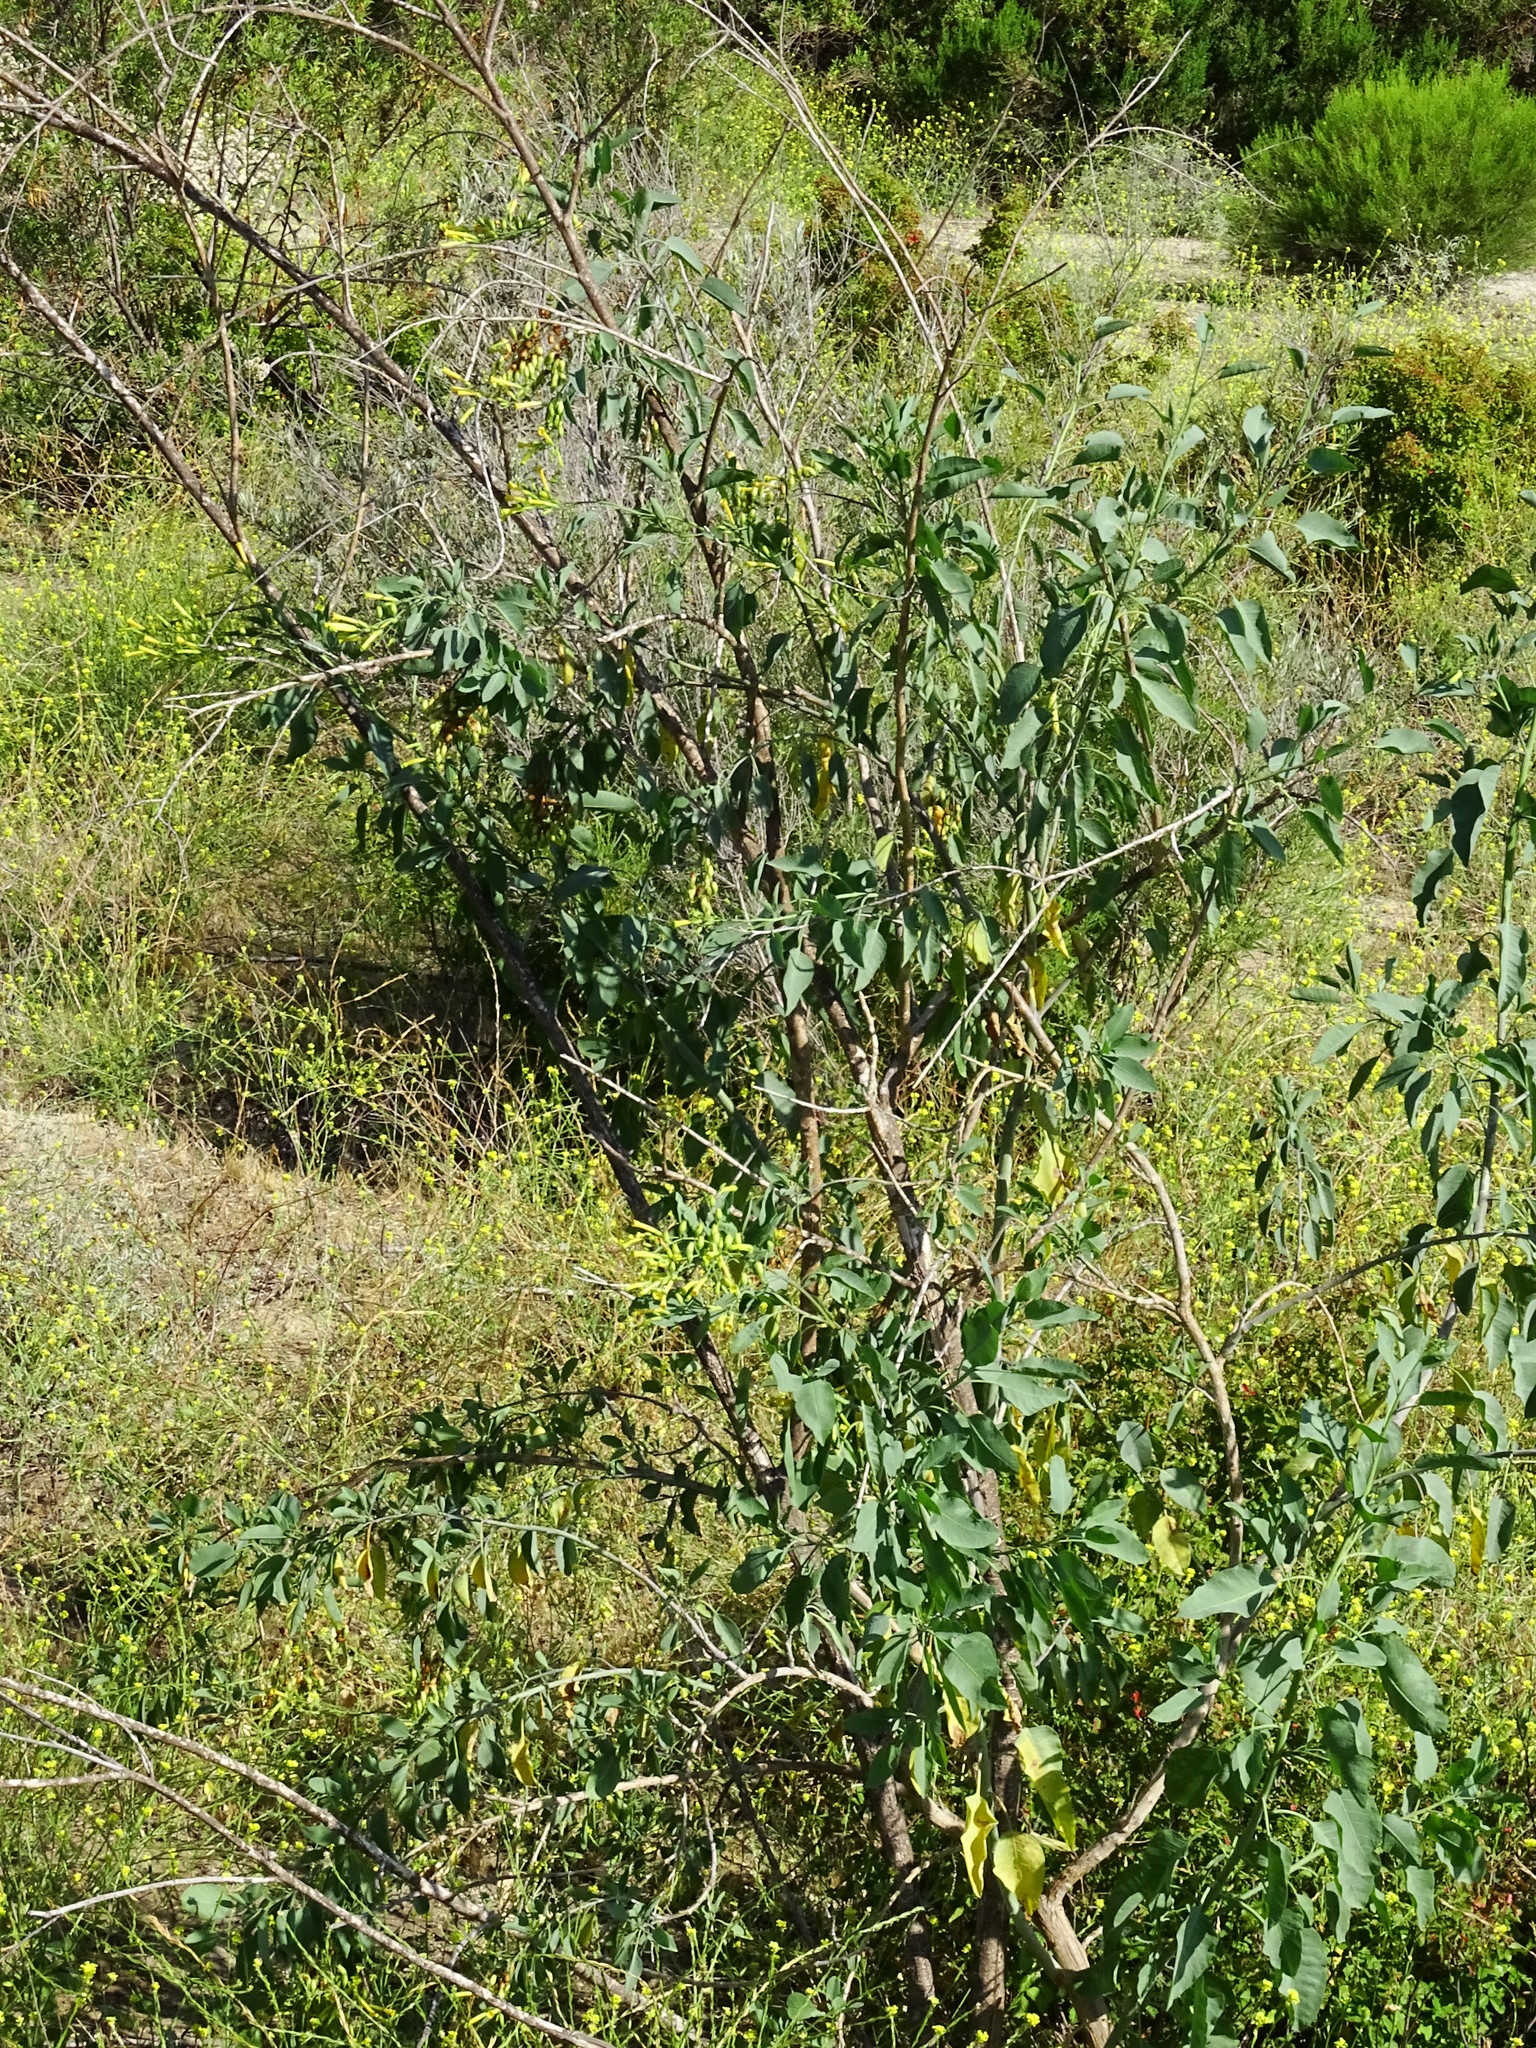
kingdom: Plantae
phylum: Tracheophyta
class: Magnoliopsida
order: Solanales
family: Solanaceae
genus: Nicotiana
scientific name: Nicotiana glauca
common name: Tree tobacco
